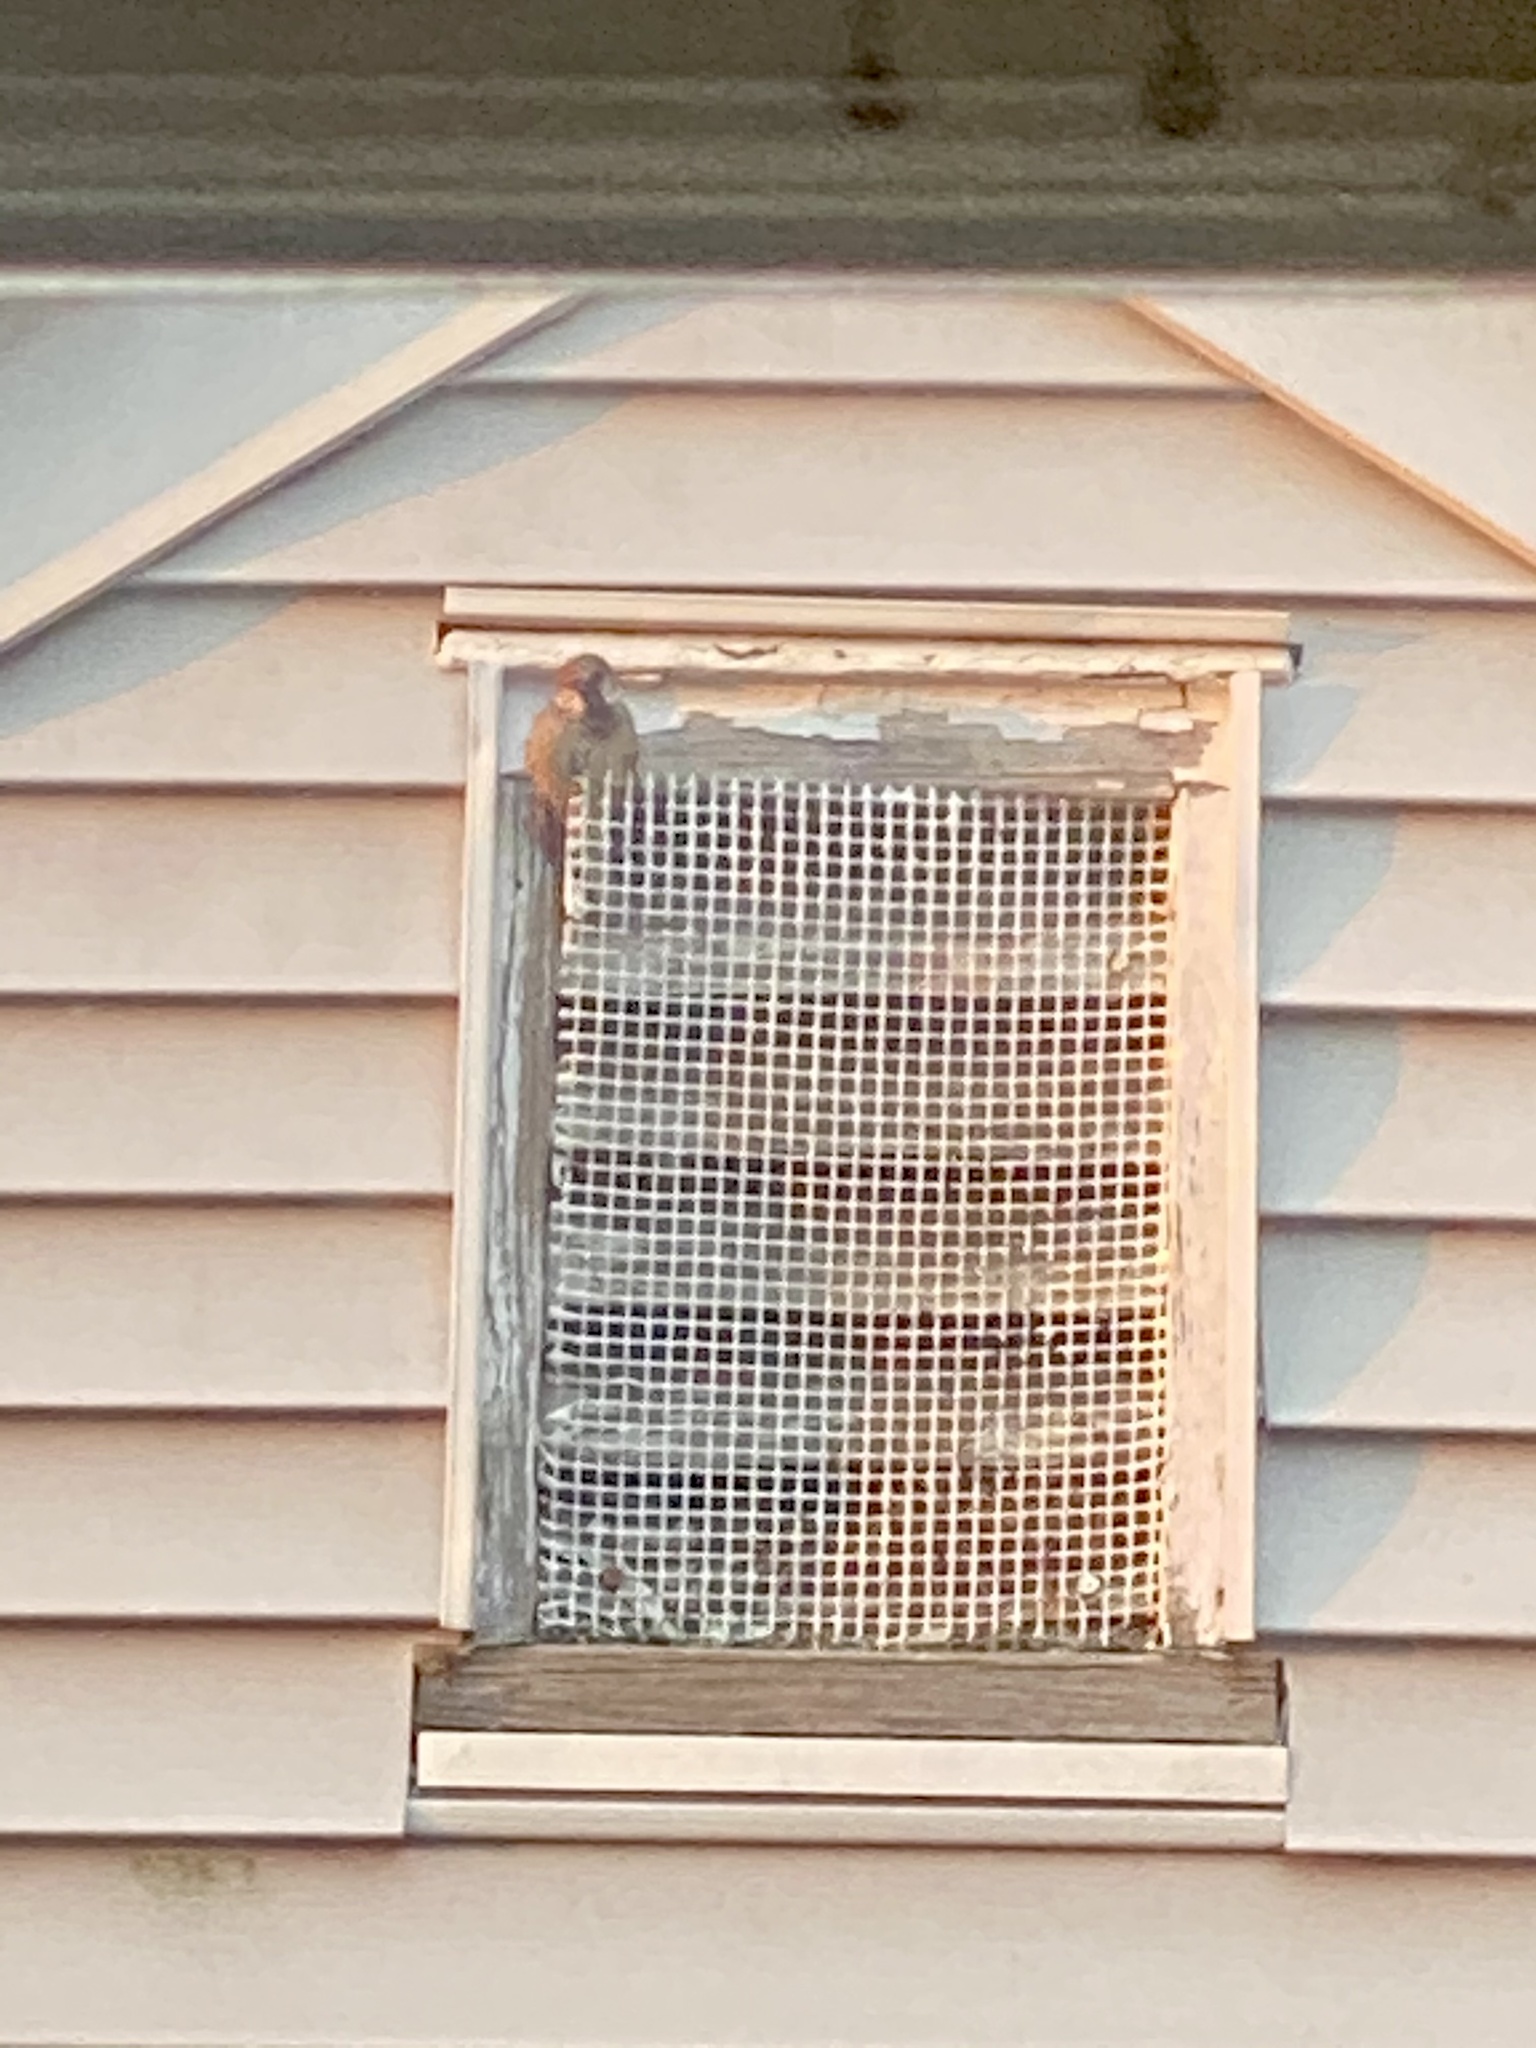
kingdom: Animalia
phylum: Chordata
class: Aves
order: Passeriformes
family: Passeridae
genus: Passer
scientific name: Passer domesticus
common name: House sparrow
